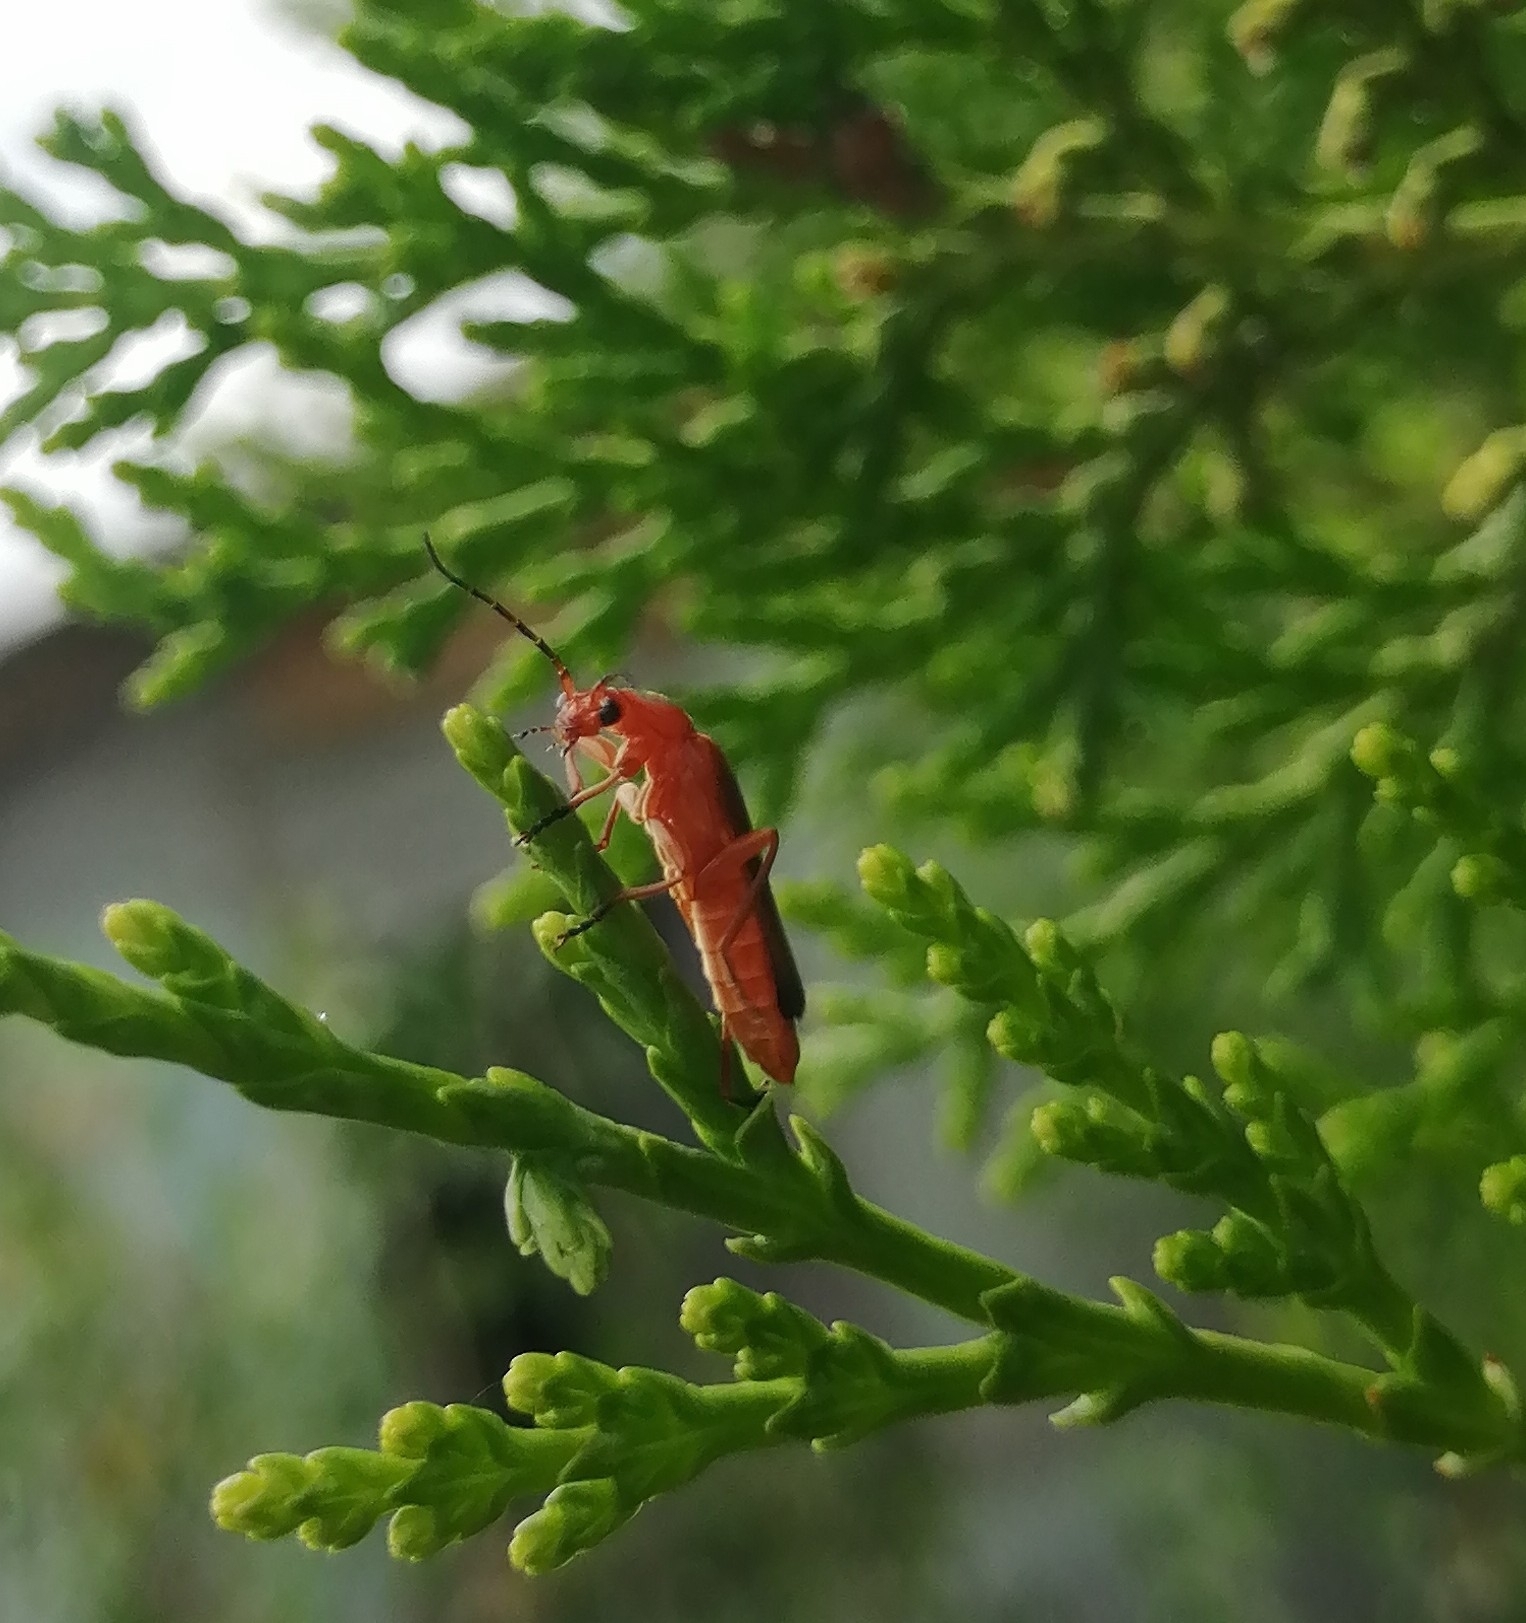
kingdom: Animalia
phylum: Arthropoda
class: Insecta
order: Coleoptera
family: Cantharidae
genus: Rhagonycha
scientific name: Rhagonycha fulva
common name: Common red soldier beetle
